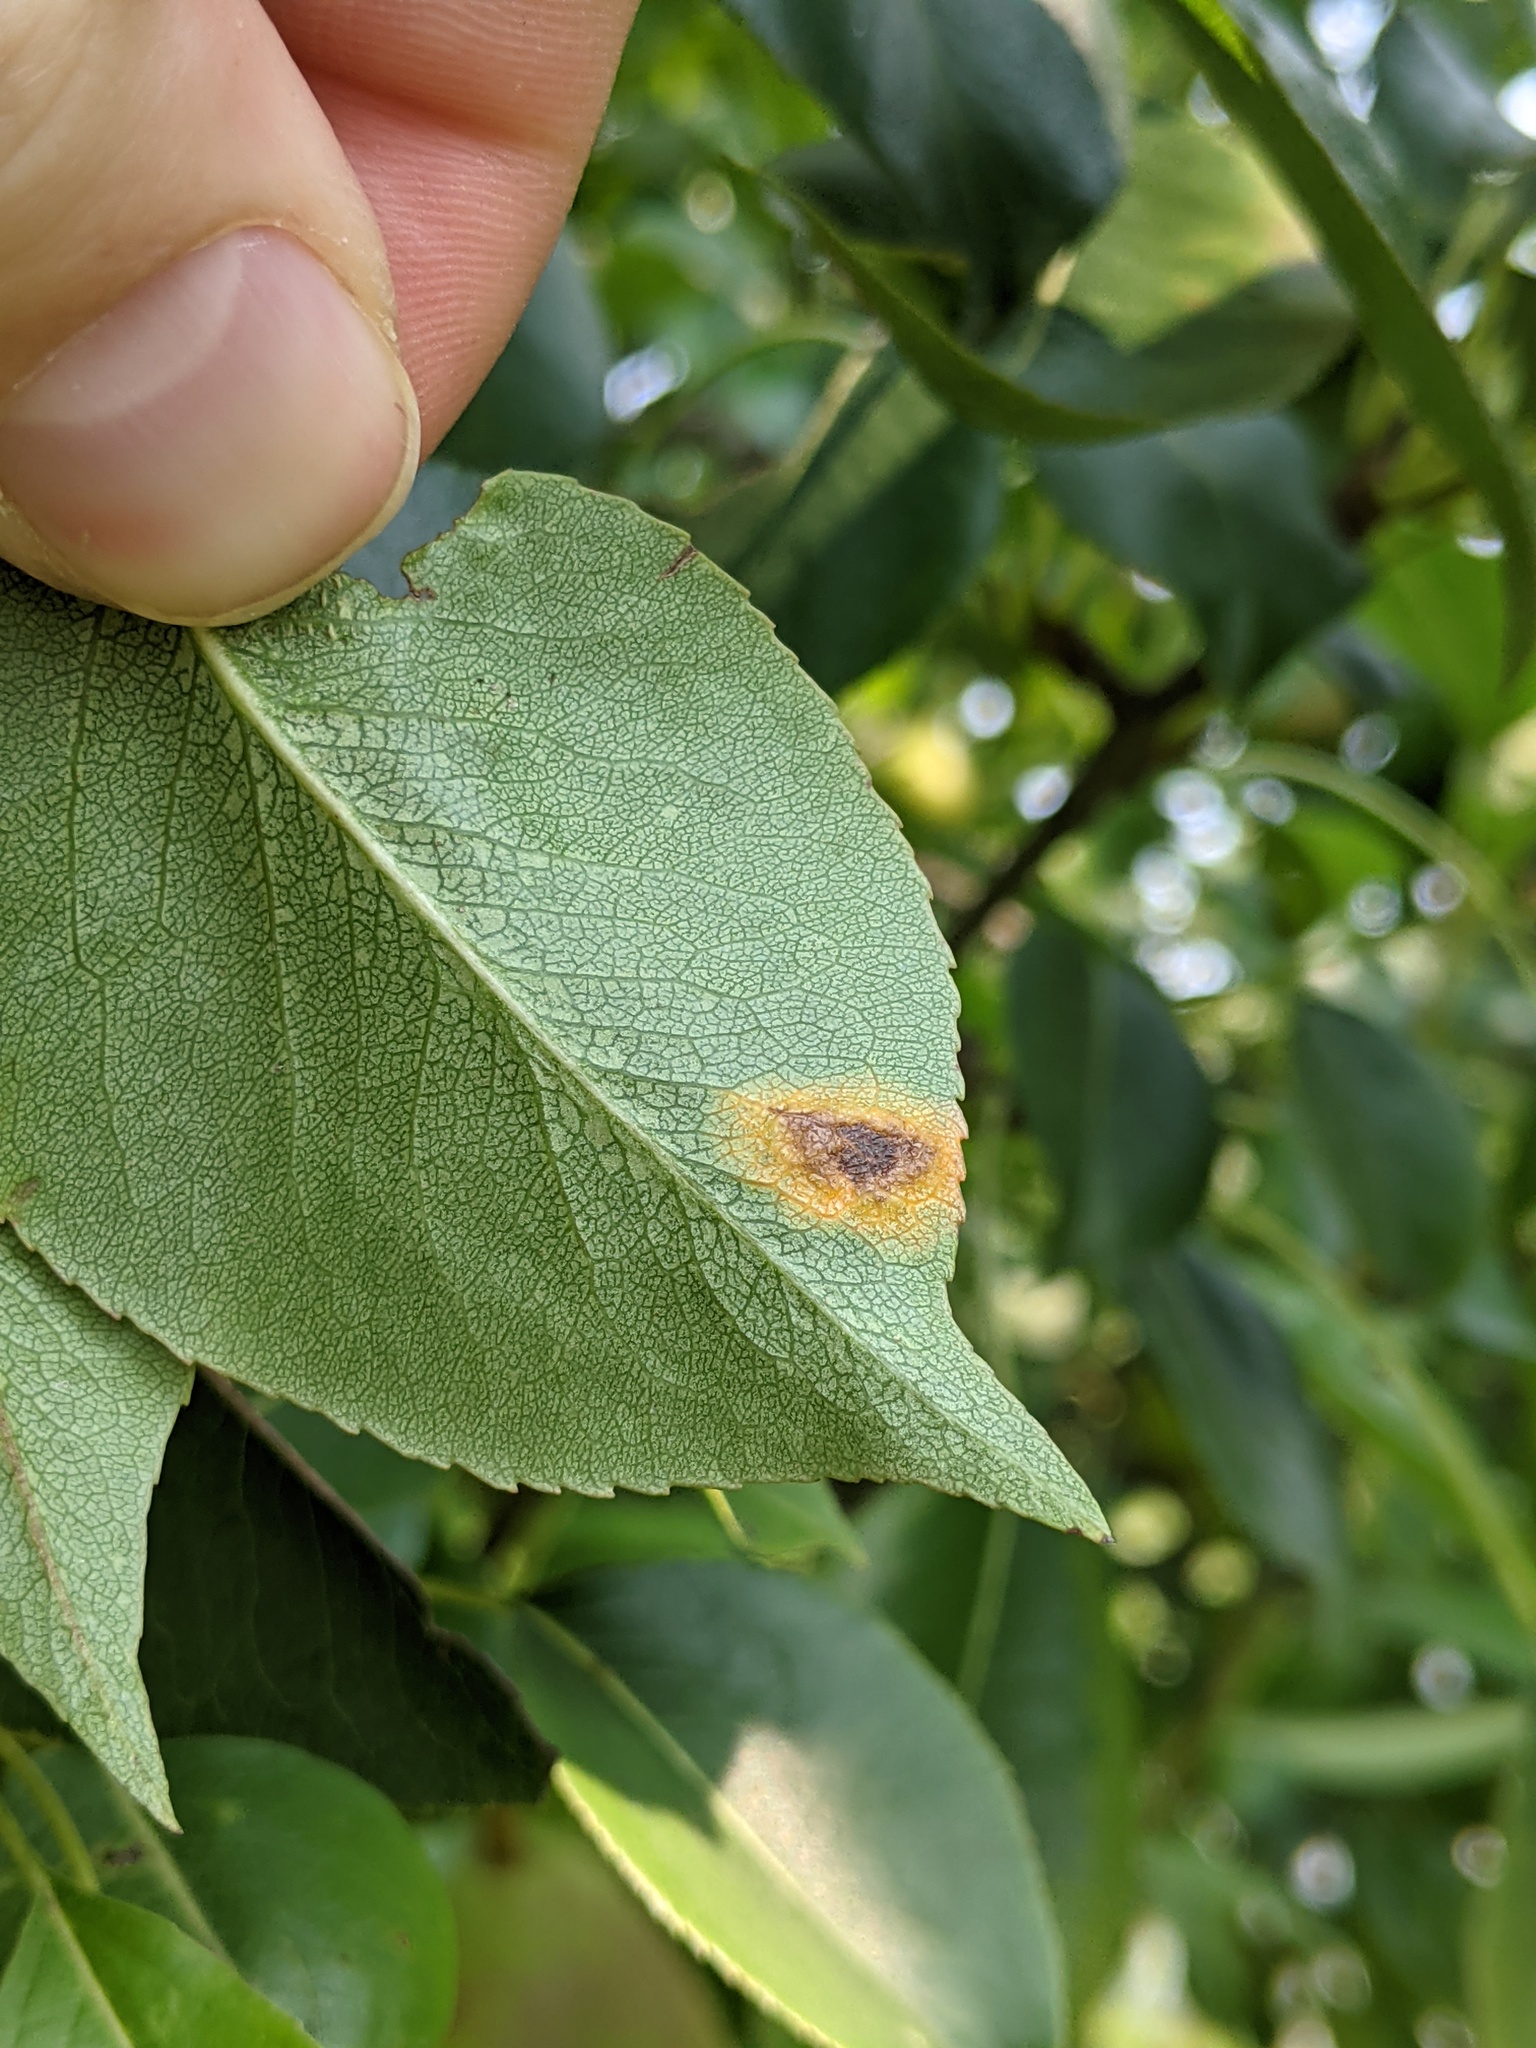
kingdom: Fungi
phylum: Basidiomycota
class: Pucciniomycetes
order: Pucciniales
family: Gymnosporangiaceae
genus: Gymnosporangium
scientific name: Gymnosporangium sabinae
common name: Pear trellis rust fungus
